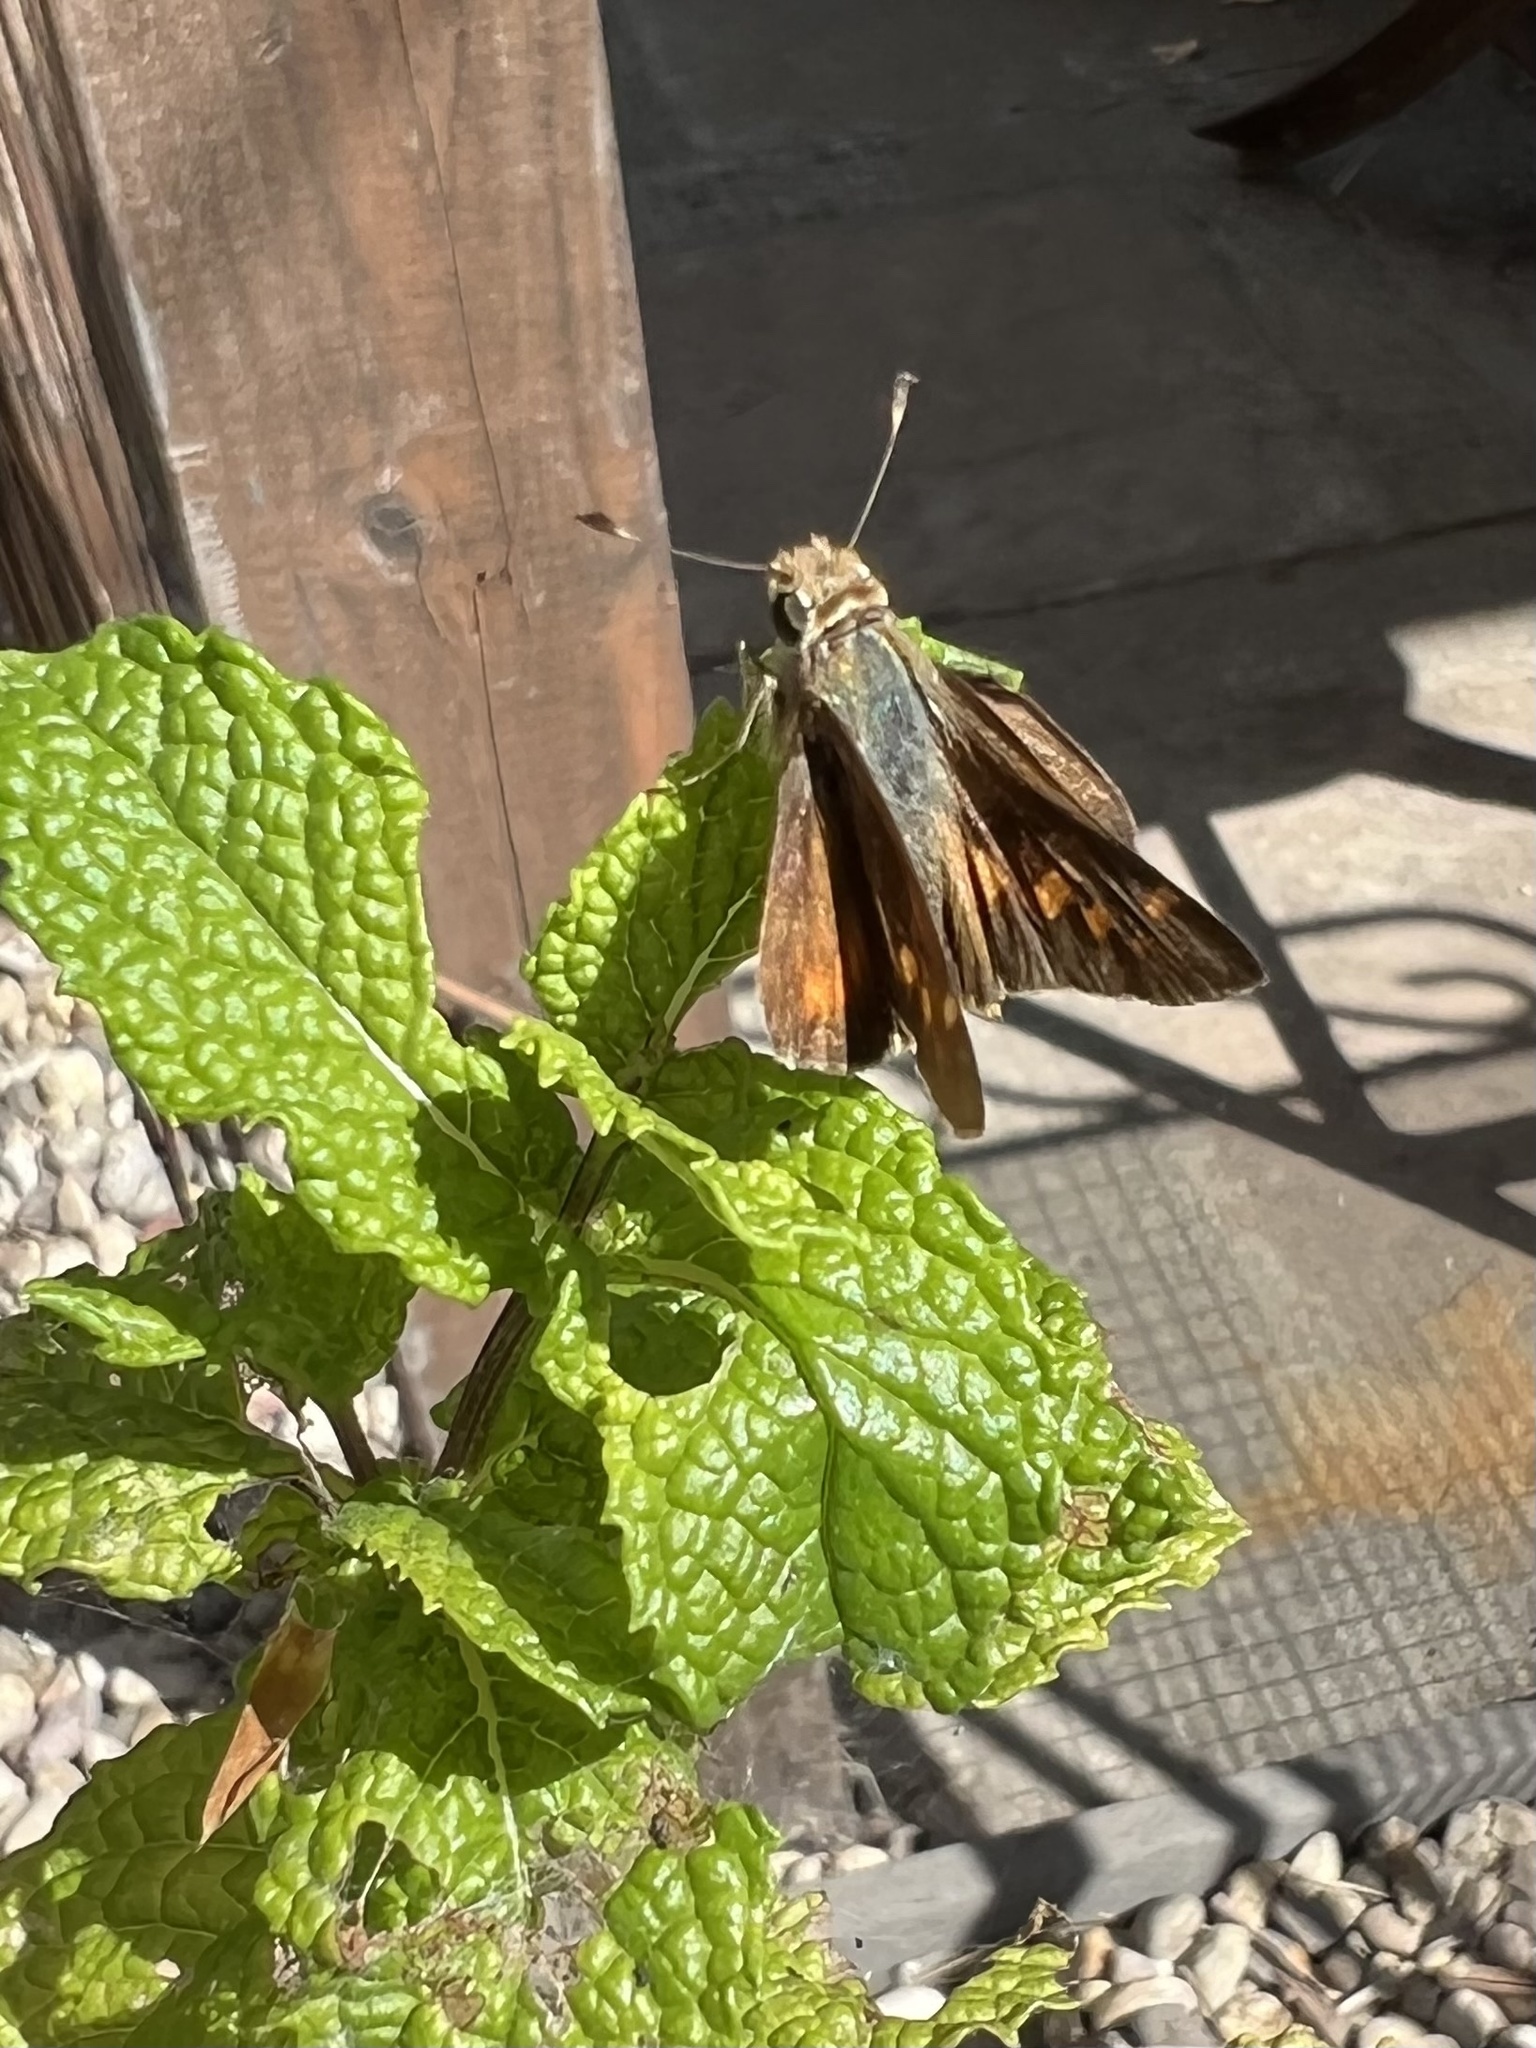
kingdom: Animalia
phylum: Arthropoda
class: Insecta
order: Lepidoptera
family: Hesperiidae
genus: Lon
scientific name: Lon melane
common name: Umber skipper
